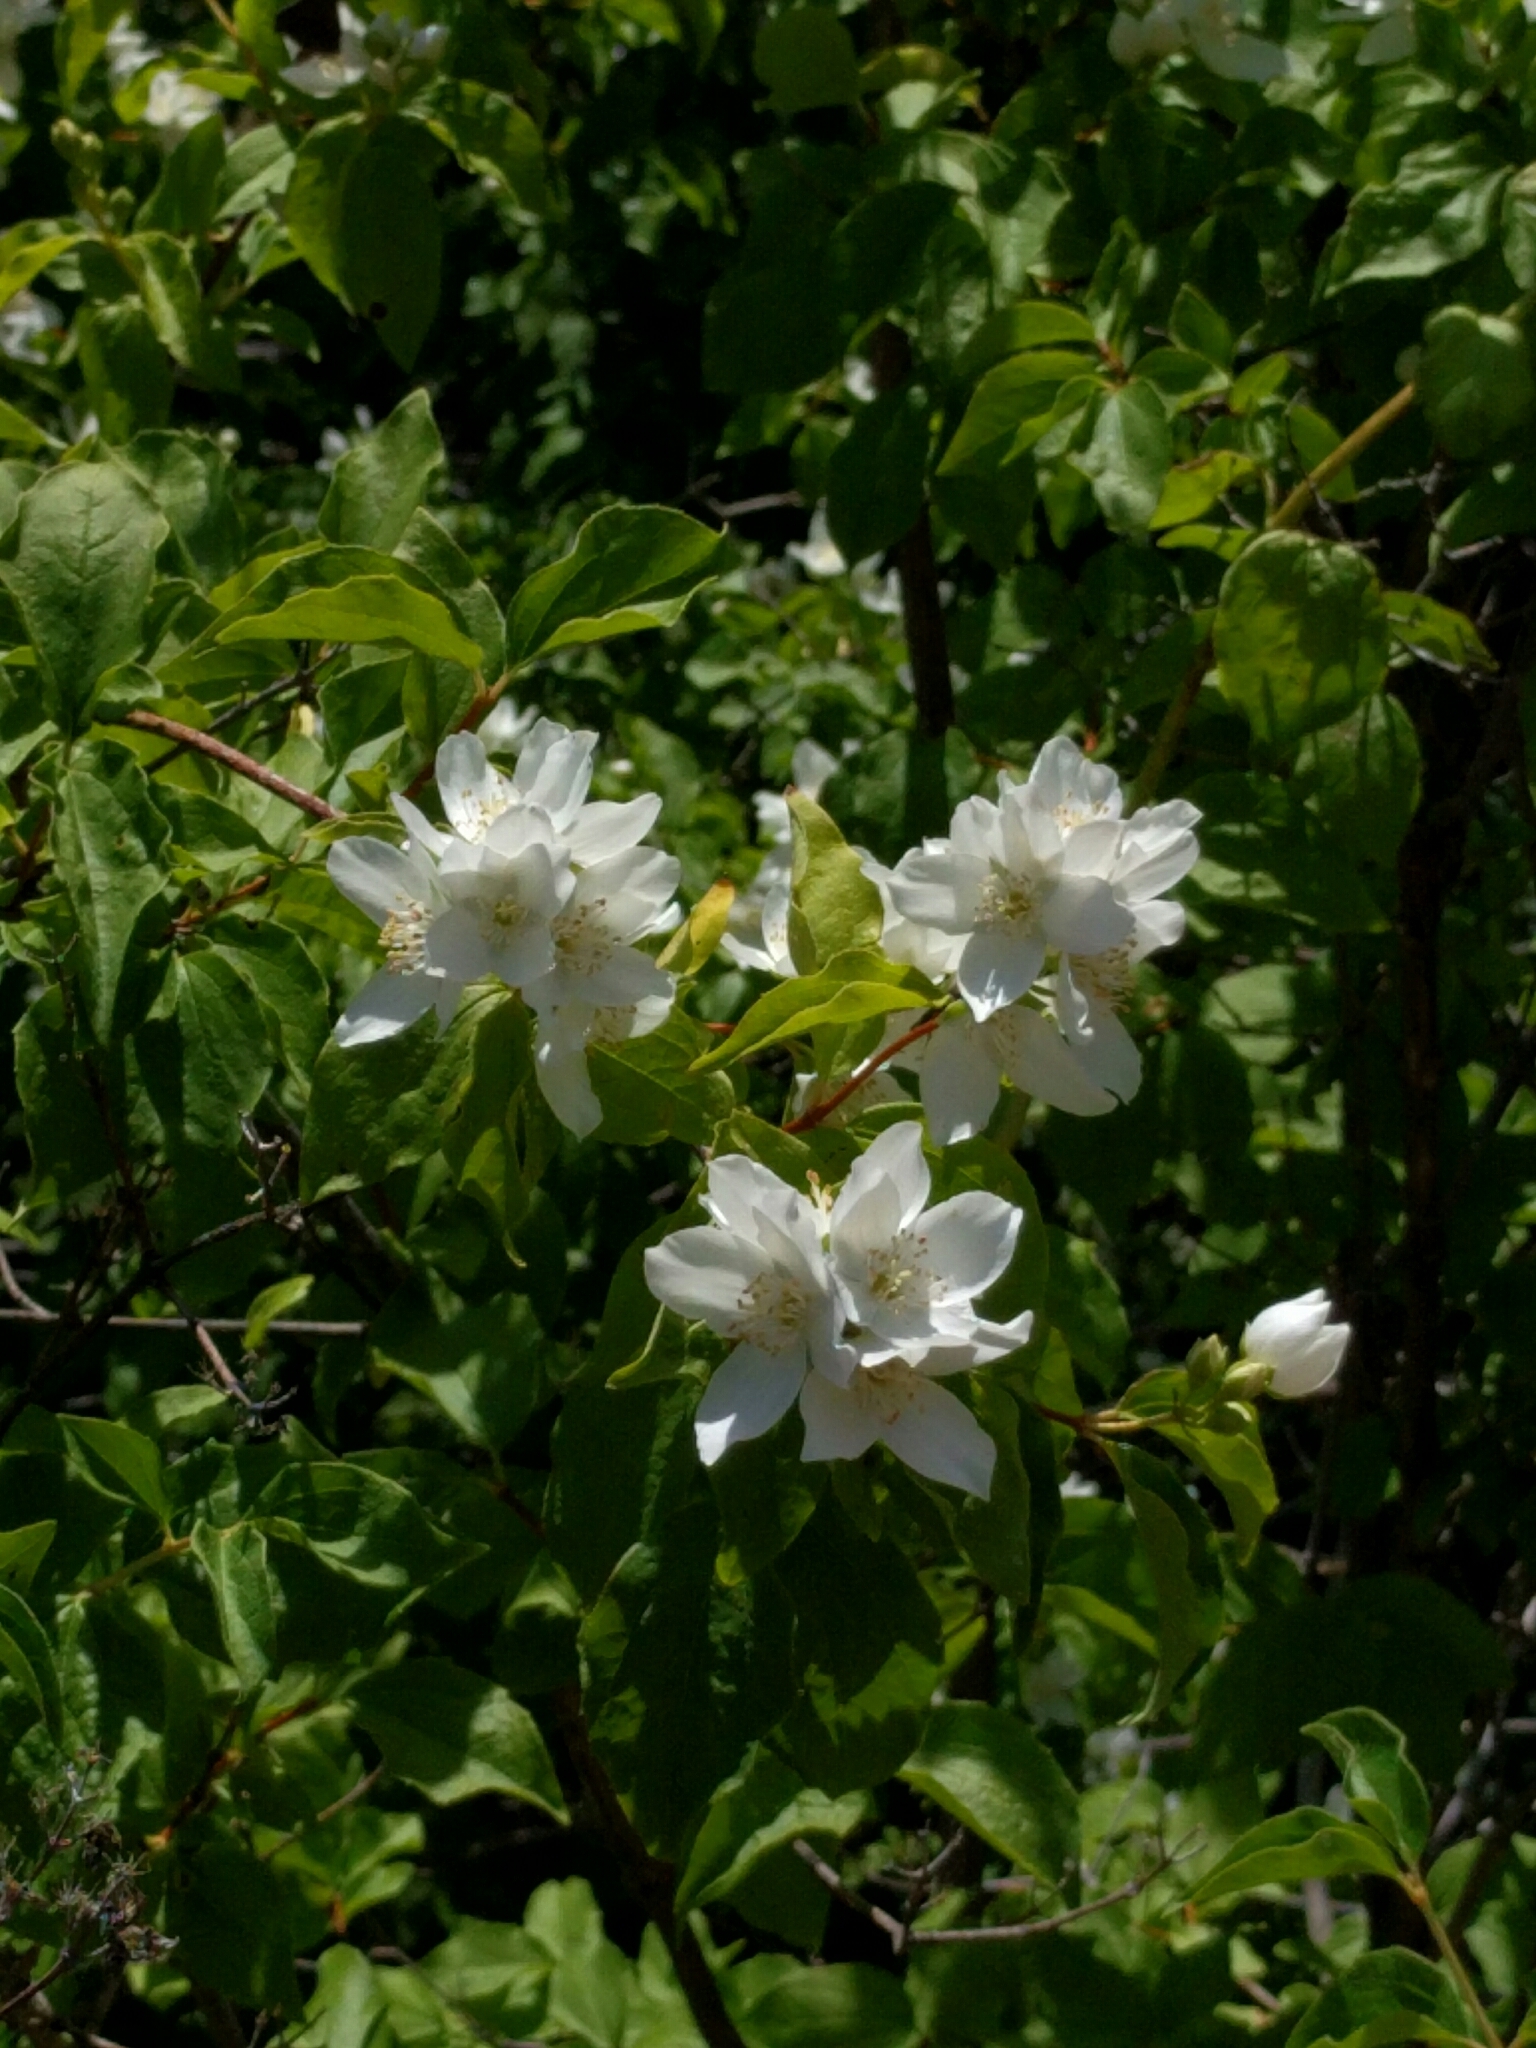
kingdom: Plantae
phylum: Tracheophyta
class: Magnoliopsida
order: Cornales
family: Hydrangeaceae
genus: Philadelphus
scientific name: Philadelphus lewisii
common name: Lewis's mock orange
